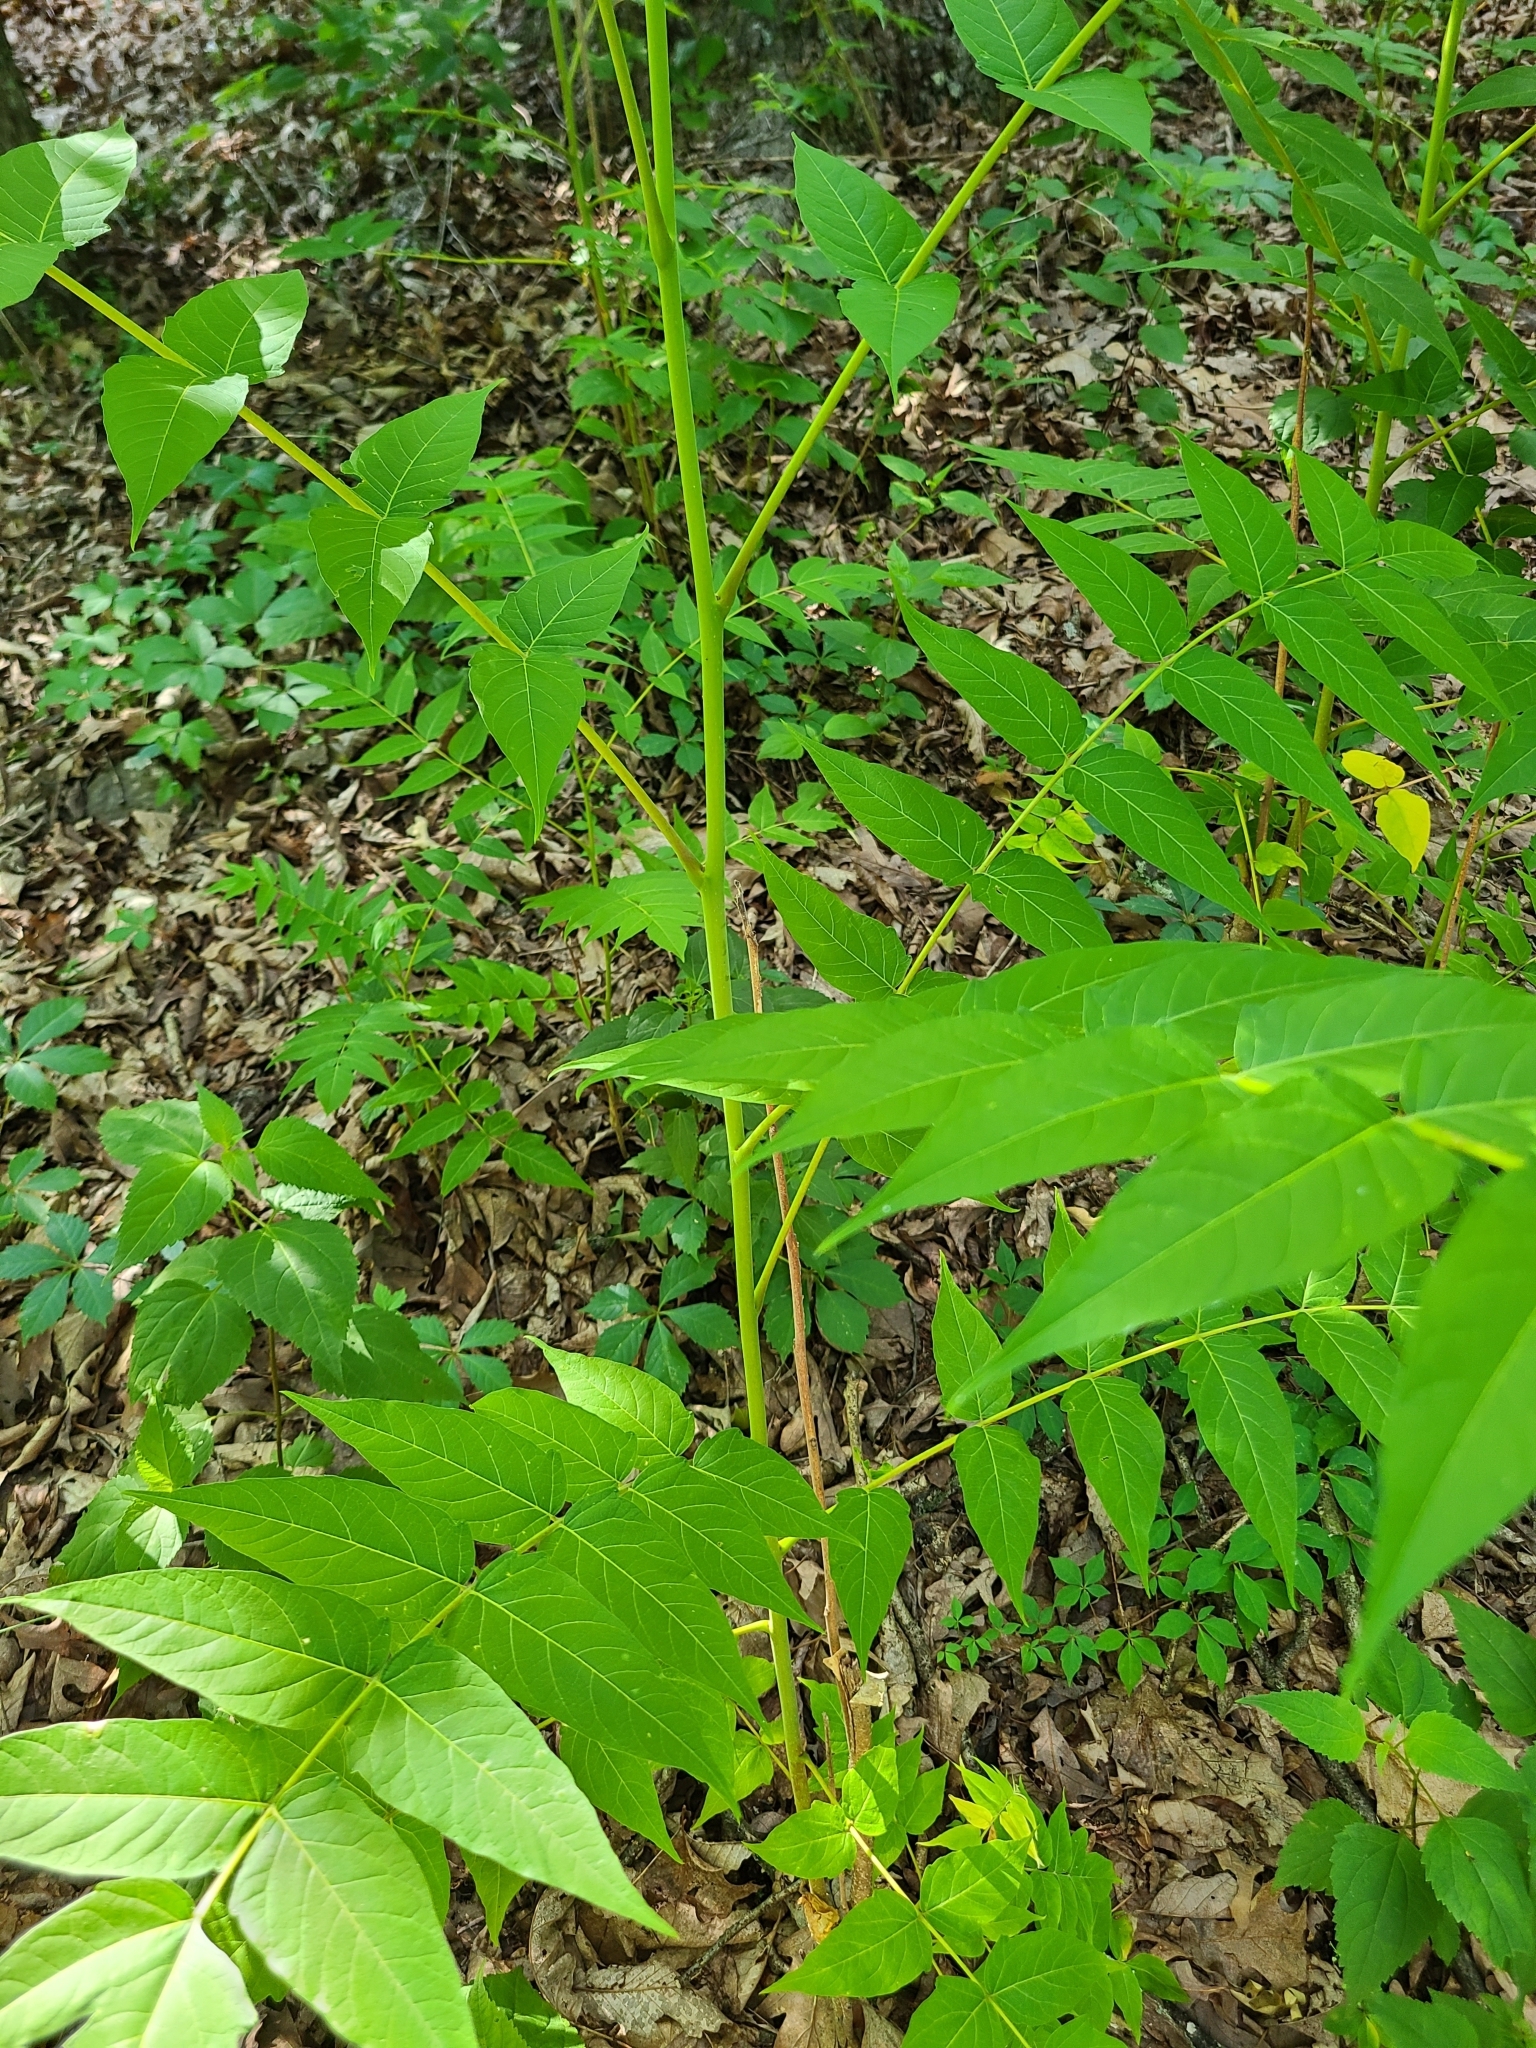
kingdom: Plantae
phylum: Tracheophyta
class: Magnoliopsida
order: Sapindales
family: Simaroubaceae
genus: Ailanthus
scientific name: Ailanthus altissima
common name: Tree-of-heaven
